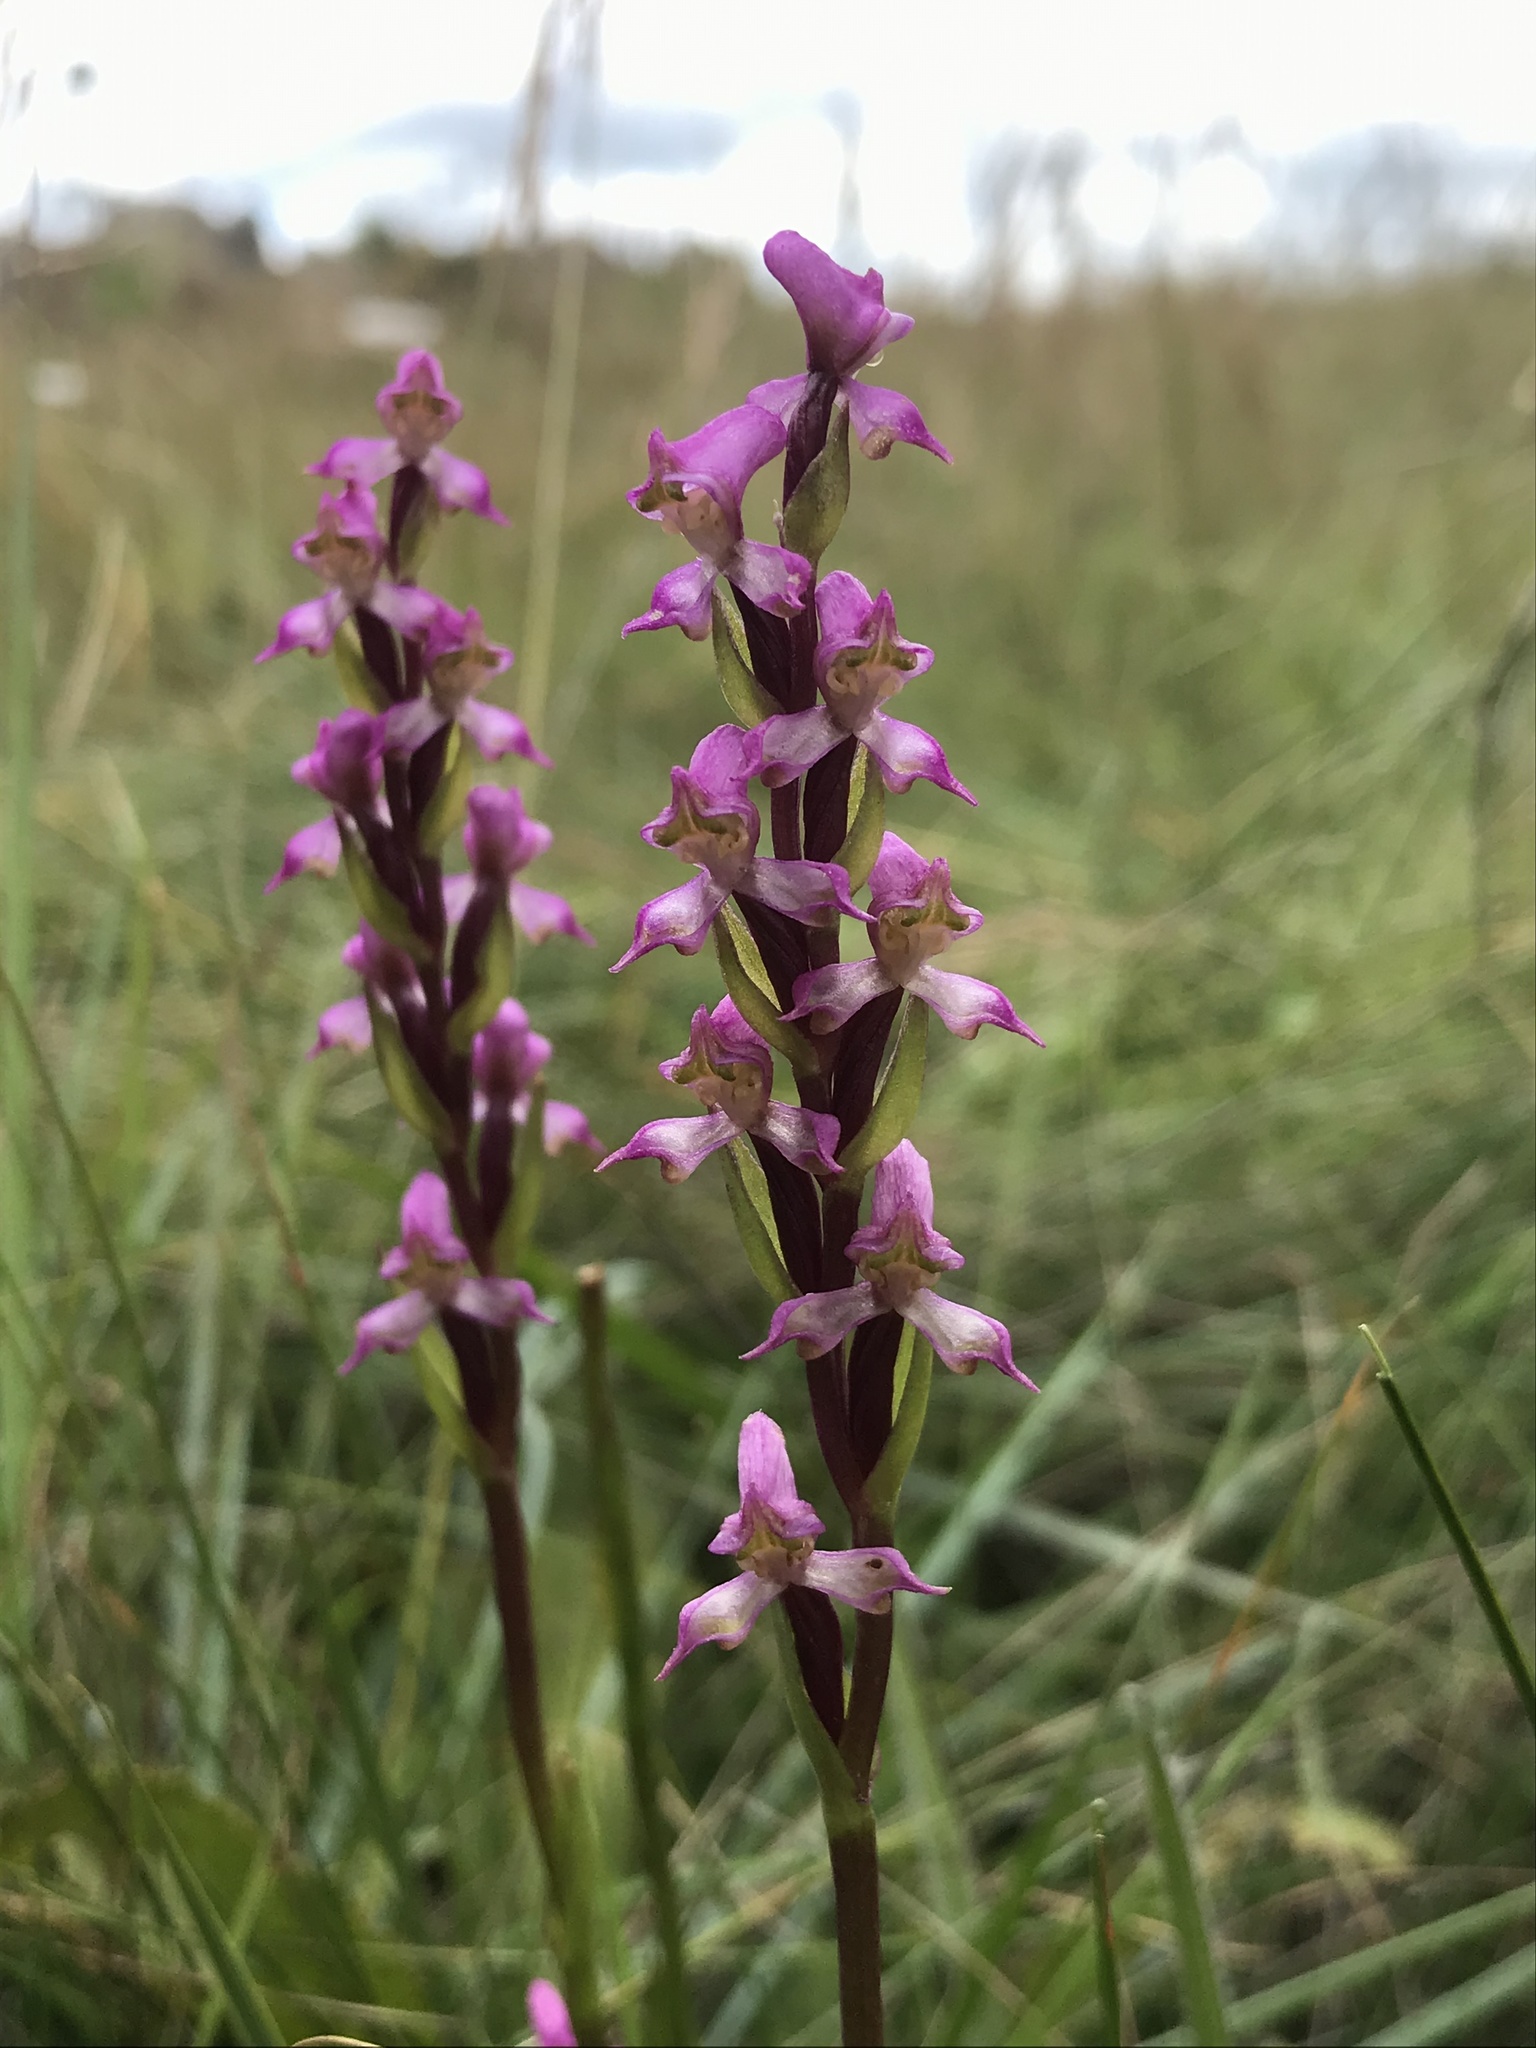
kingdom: Plantae
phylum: Tracheophyta
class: Liliopsida
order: Asparagales
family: Orchidaceae
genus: Disperis
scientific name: Disperis tysonii
